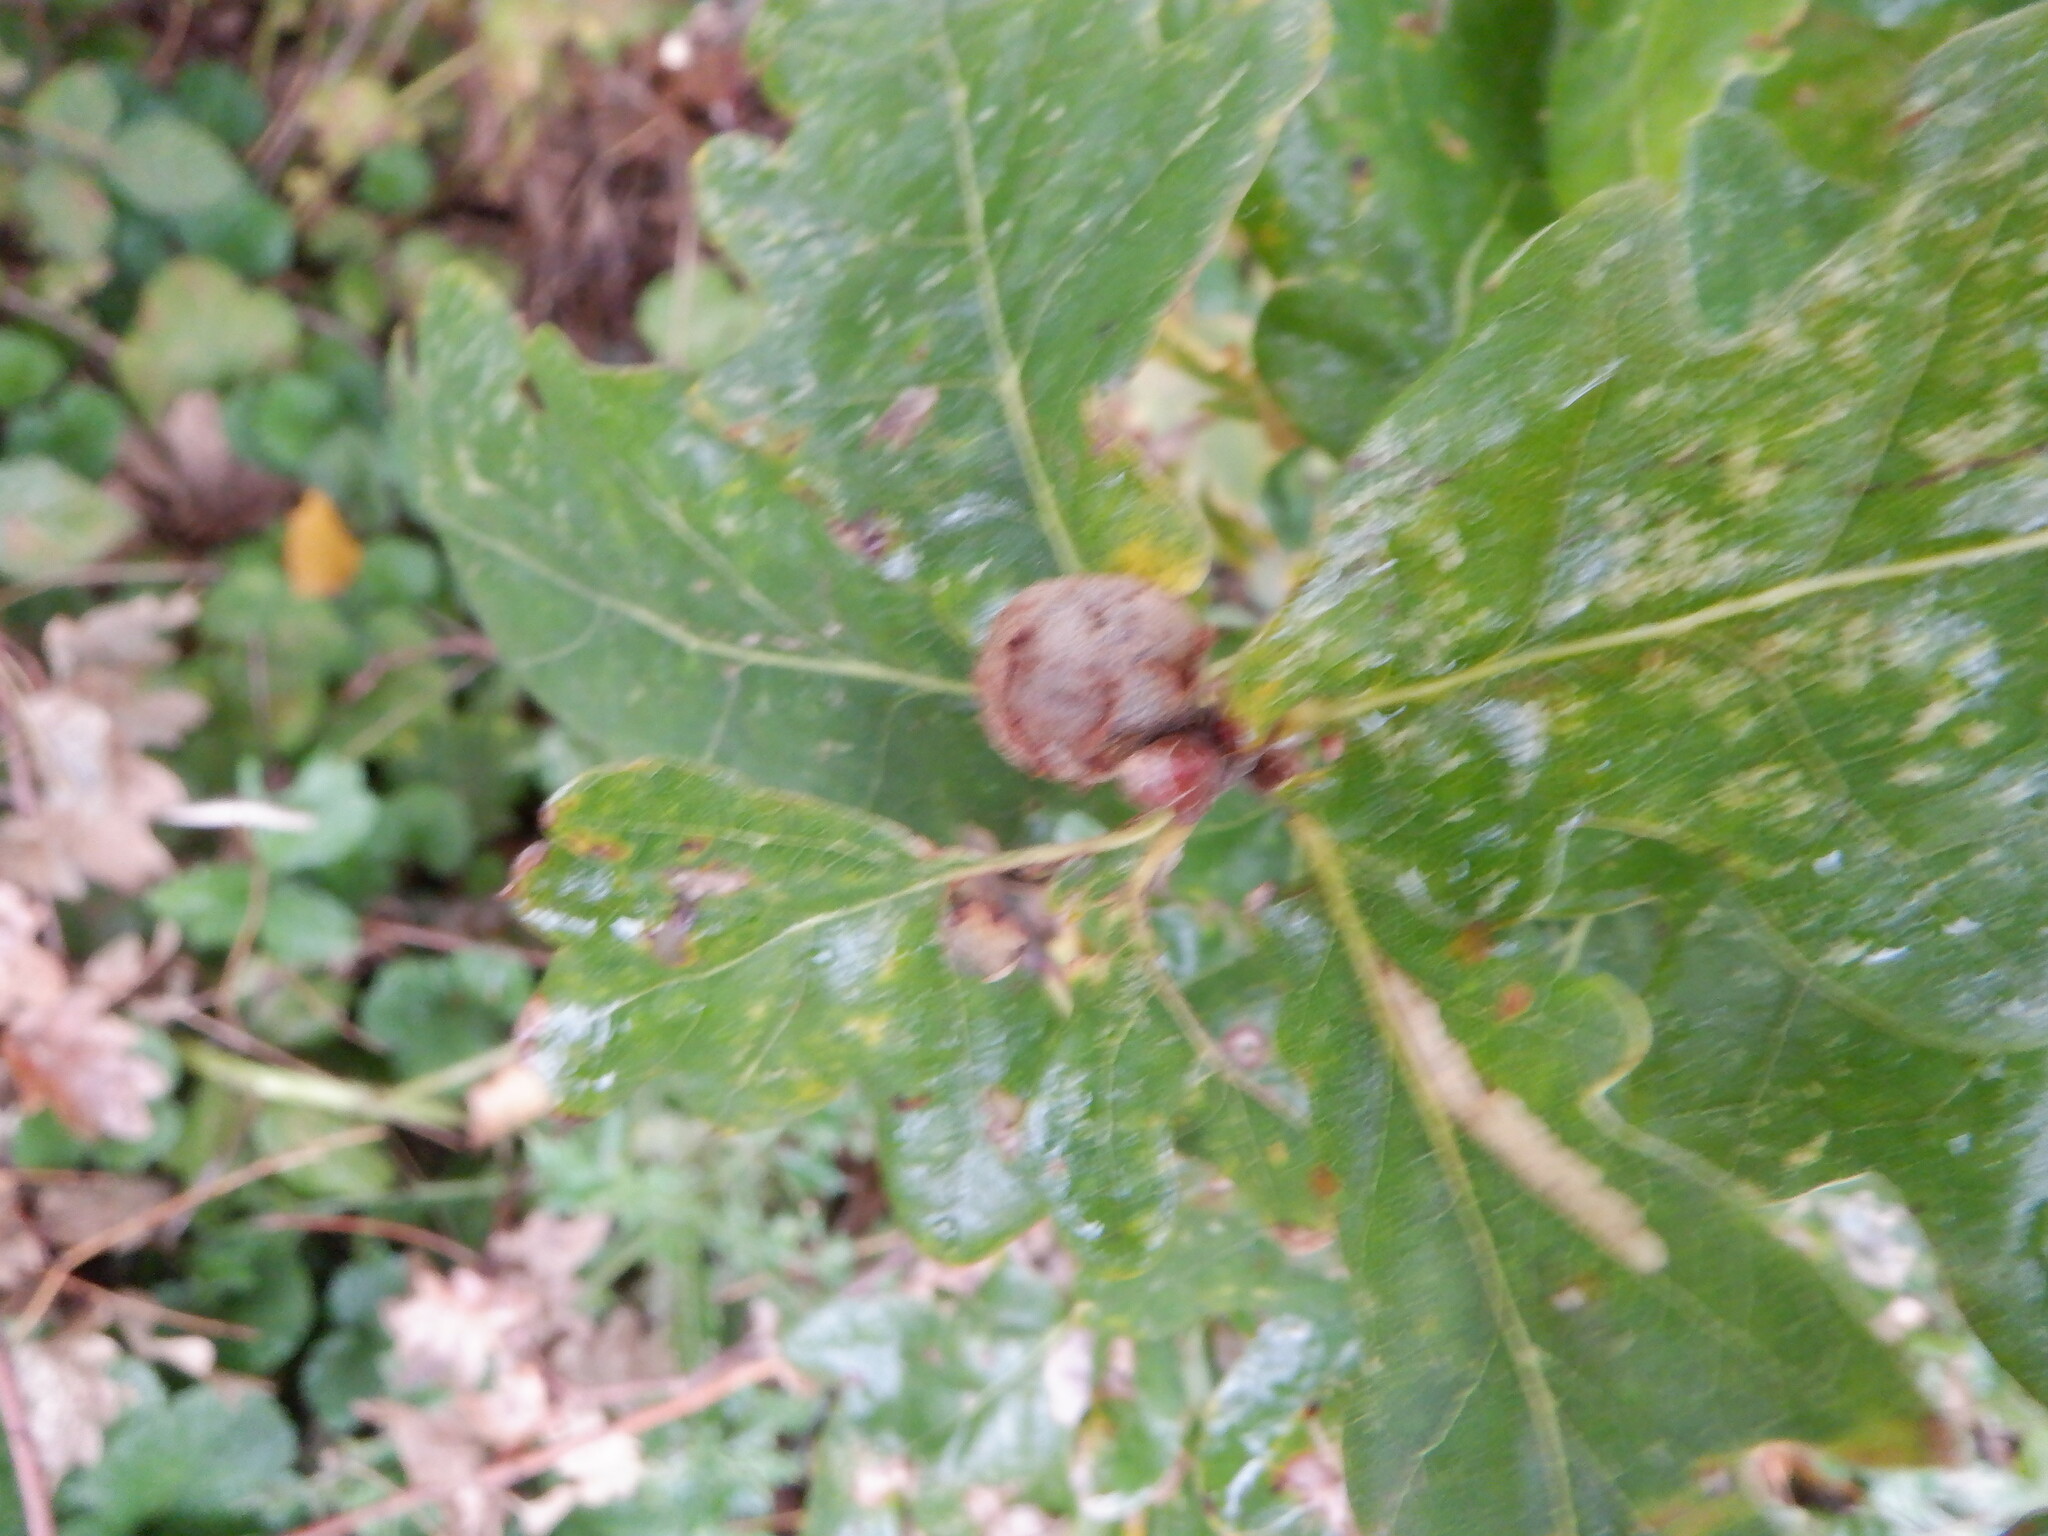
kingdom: Animalia
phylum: Arthropoda
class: Insecta
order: Hymenoptera
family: Cynipidae
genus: Andricus
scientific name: Andricus lignicolus
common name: Cola-nut gall
